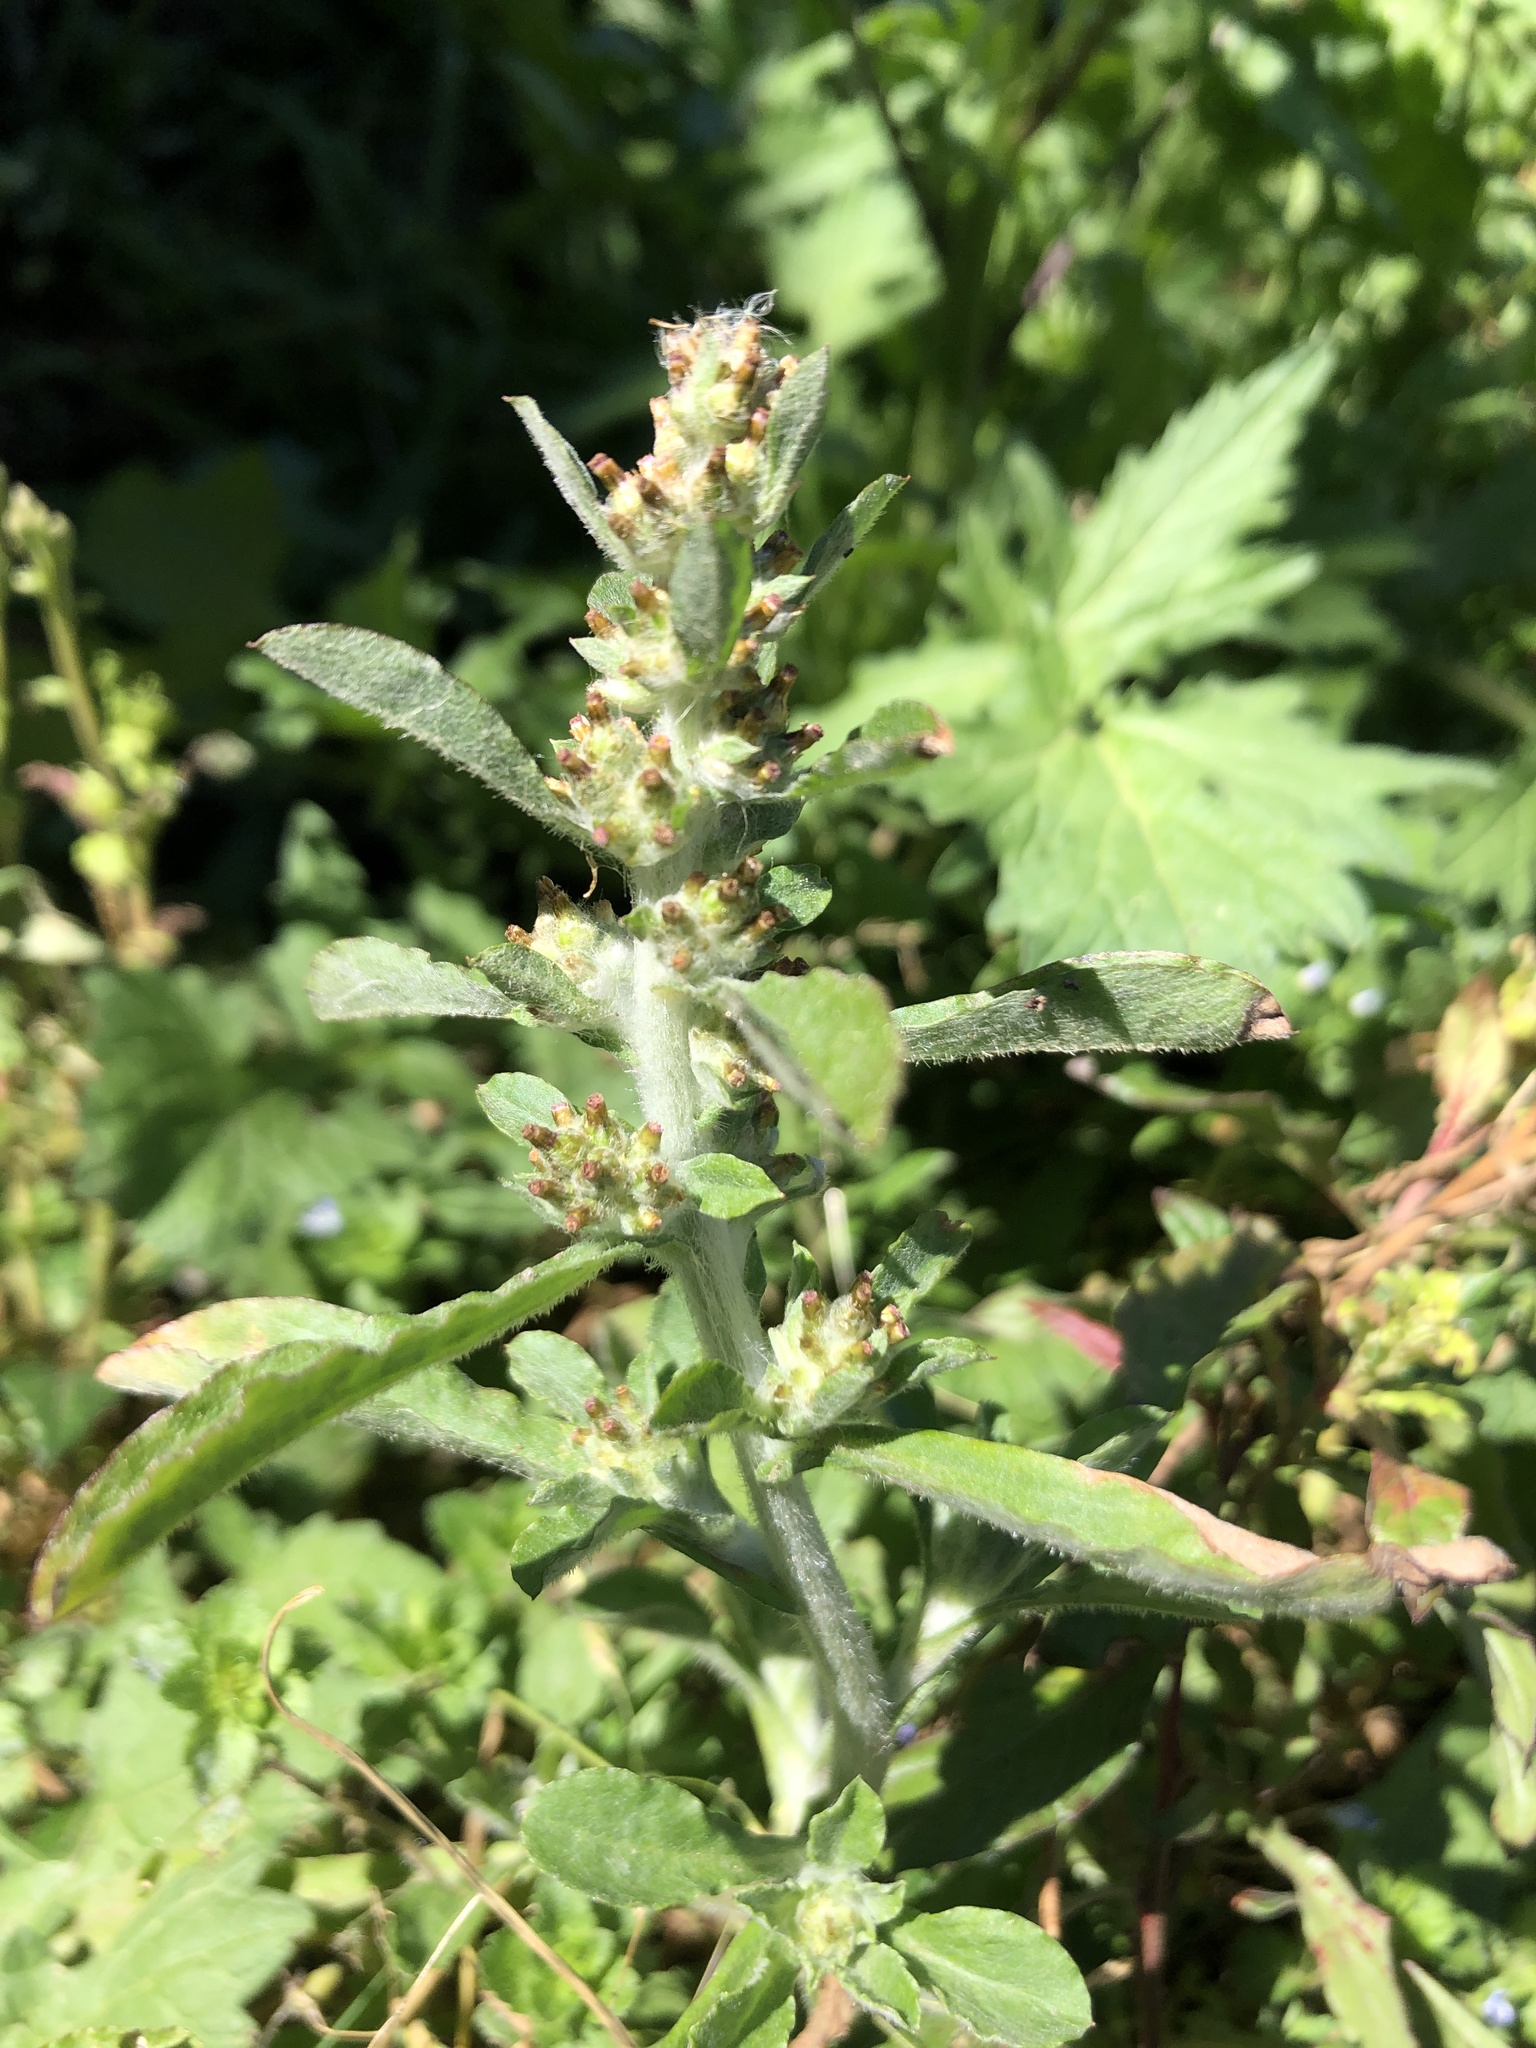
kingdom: Plantae
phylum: Tracheophyta
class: Magnoliopsida
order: Asterales
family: Asteraceae
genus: Gamochaeta
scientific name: Gamochaeta pensylvanica
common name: Pennsylvania everlasting
